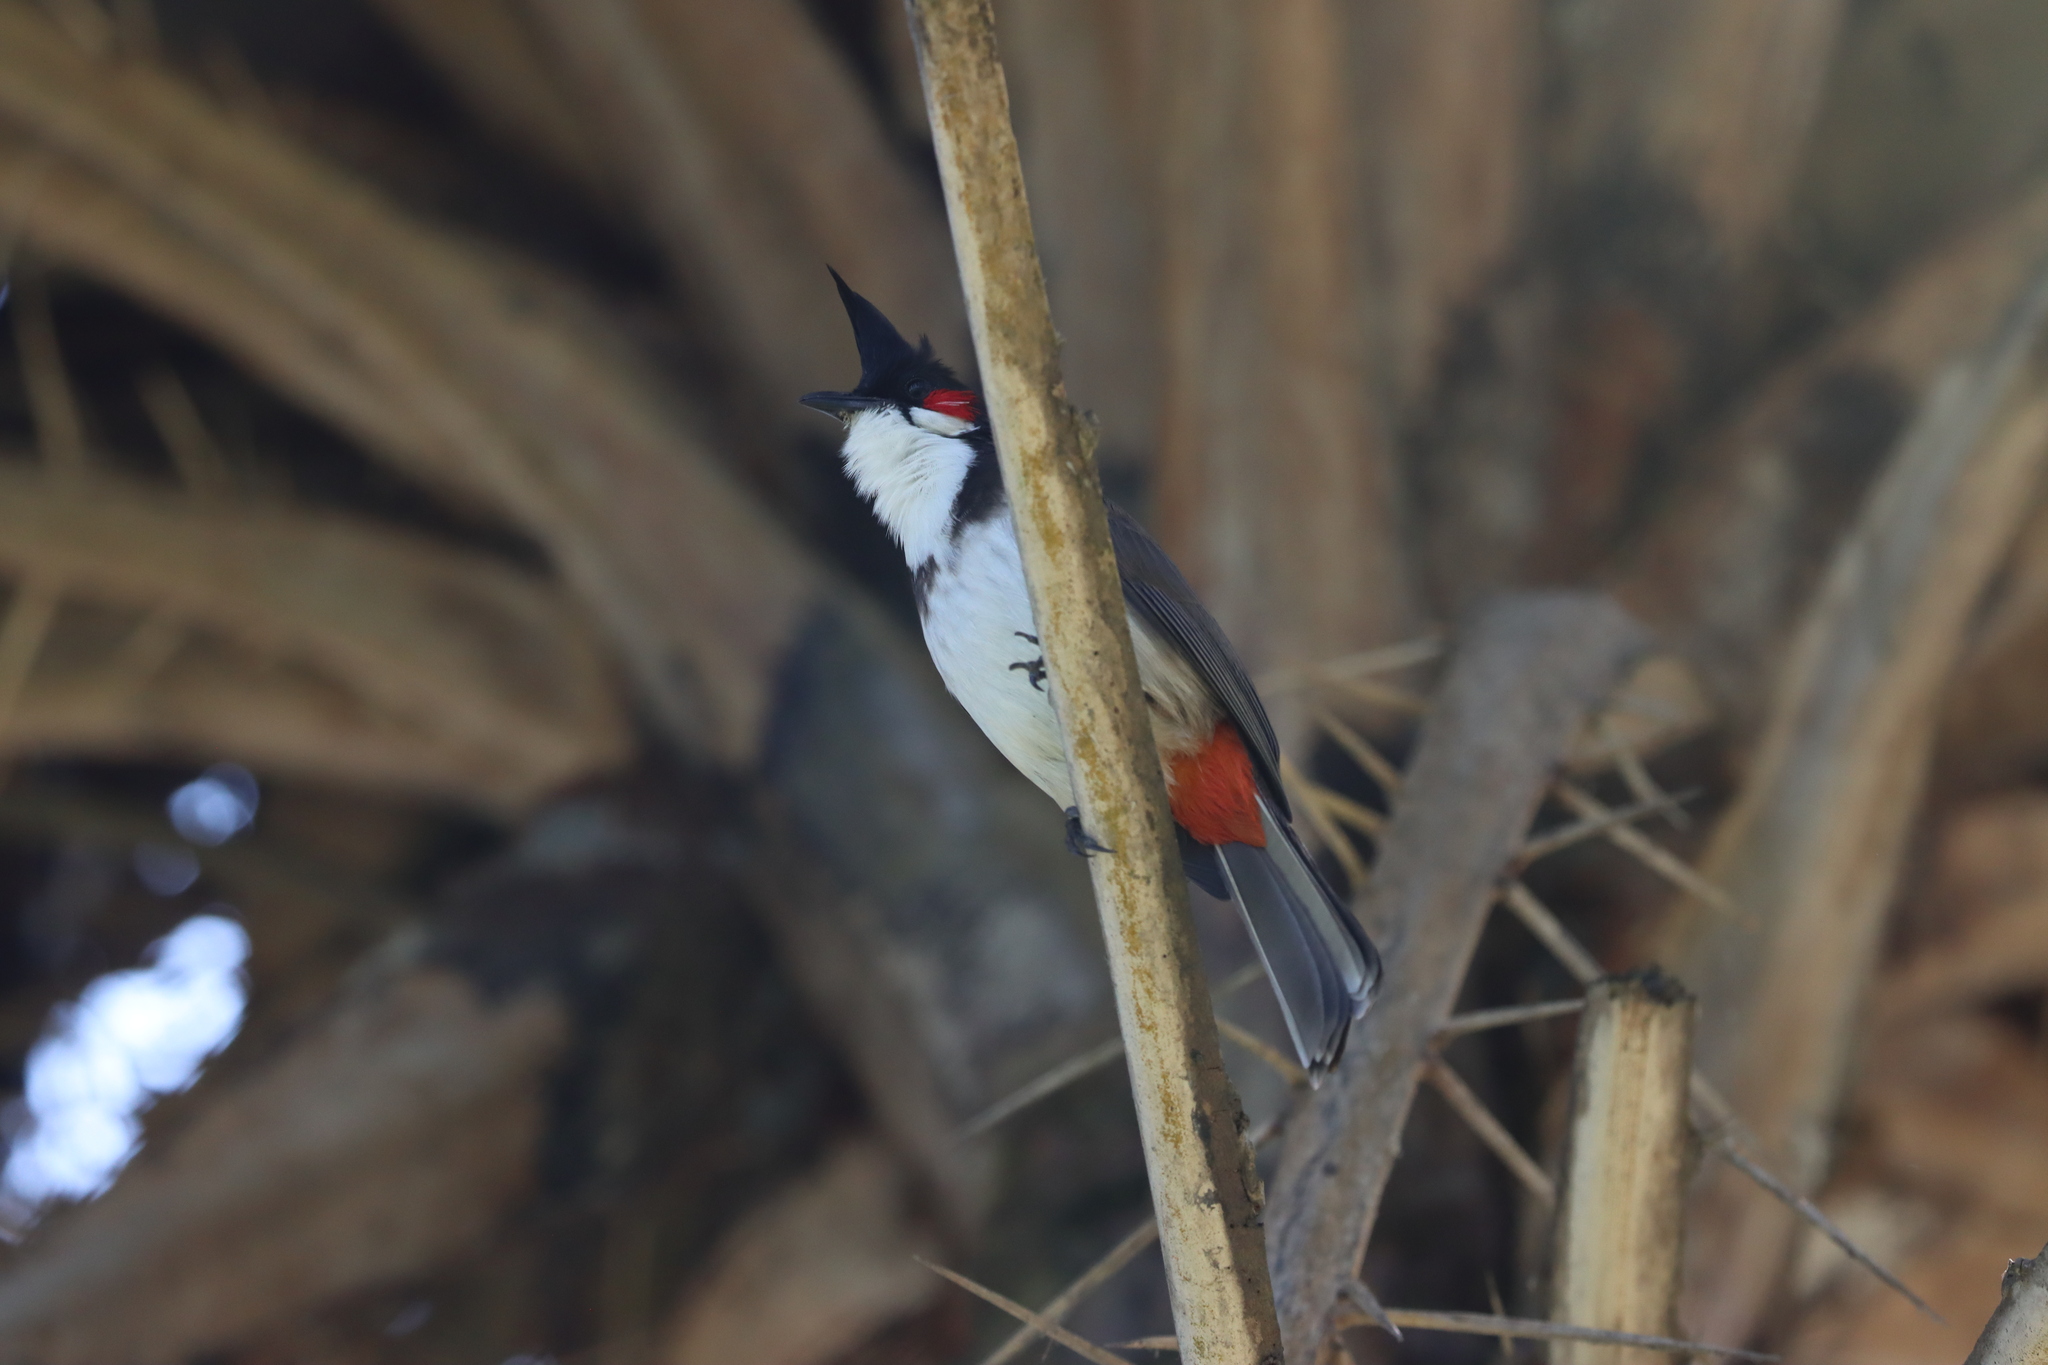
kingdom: Animalia
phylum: Chordata
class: Aves
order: Passeriformes
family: Pycnonotidae
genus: Pycnonotus
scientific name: Pycnonotus jocosus
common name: Red-whiskered bulbul
